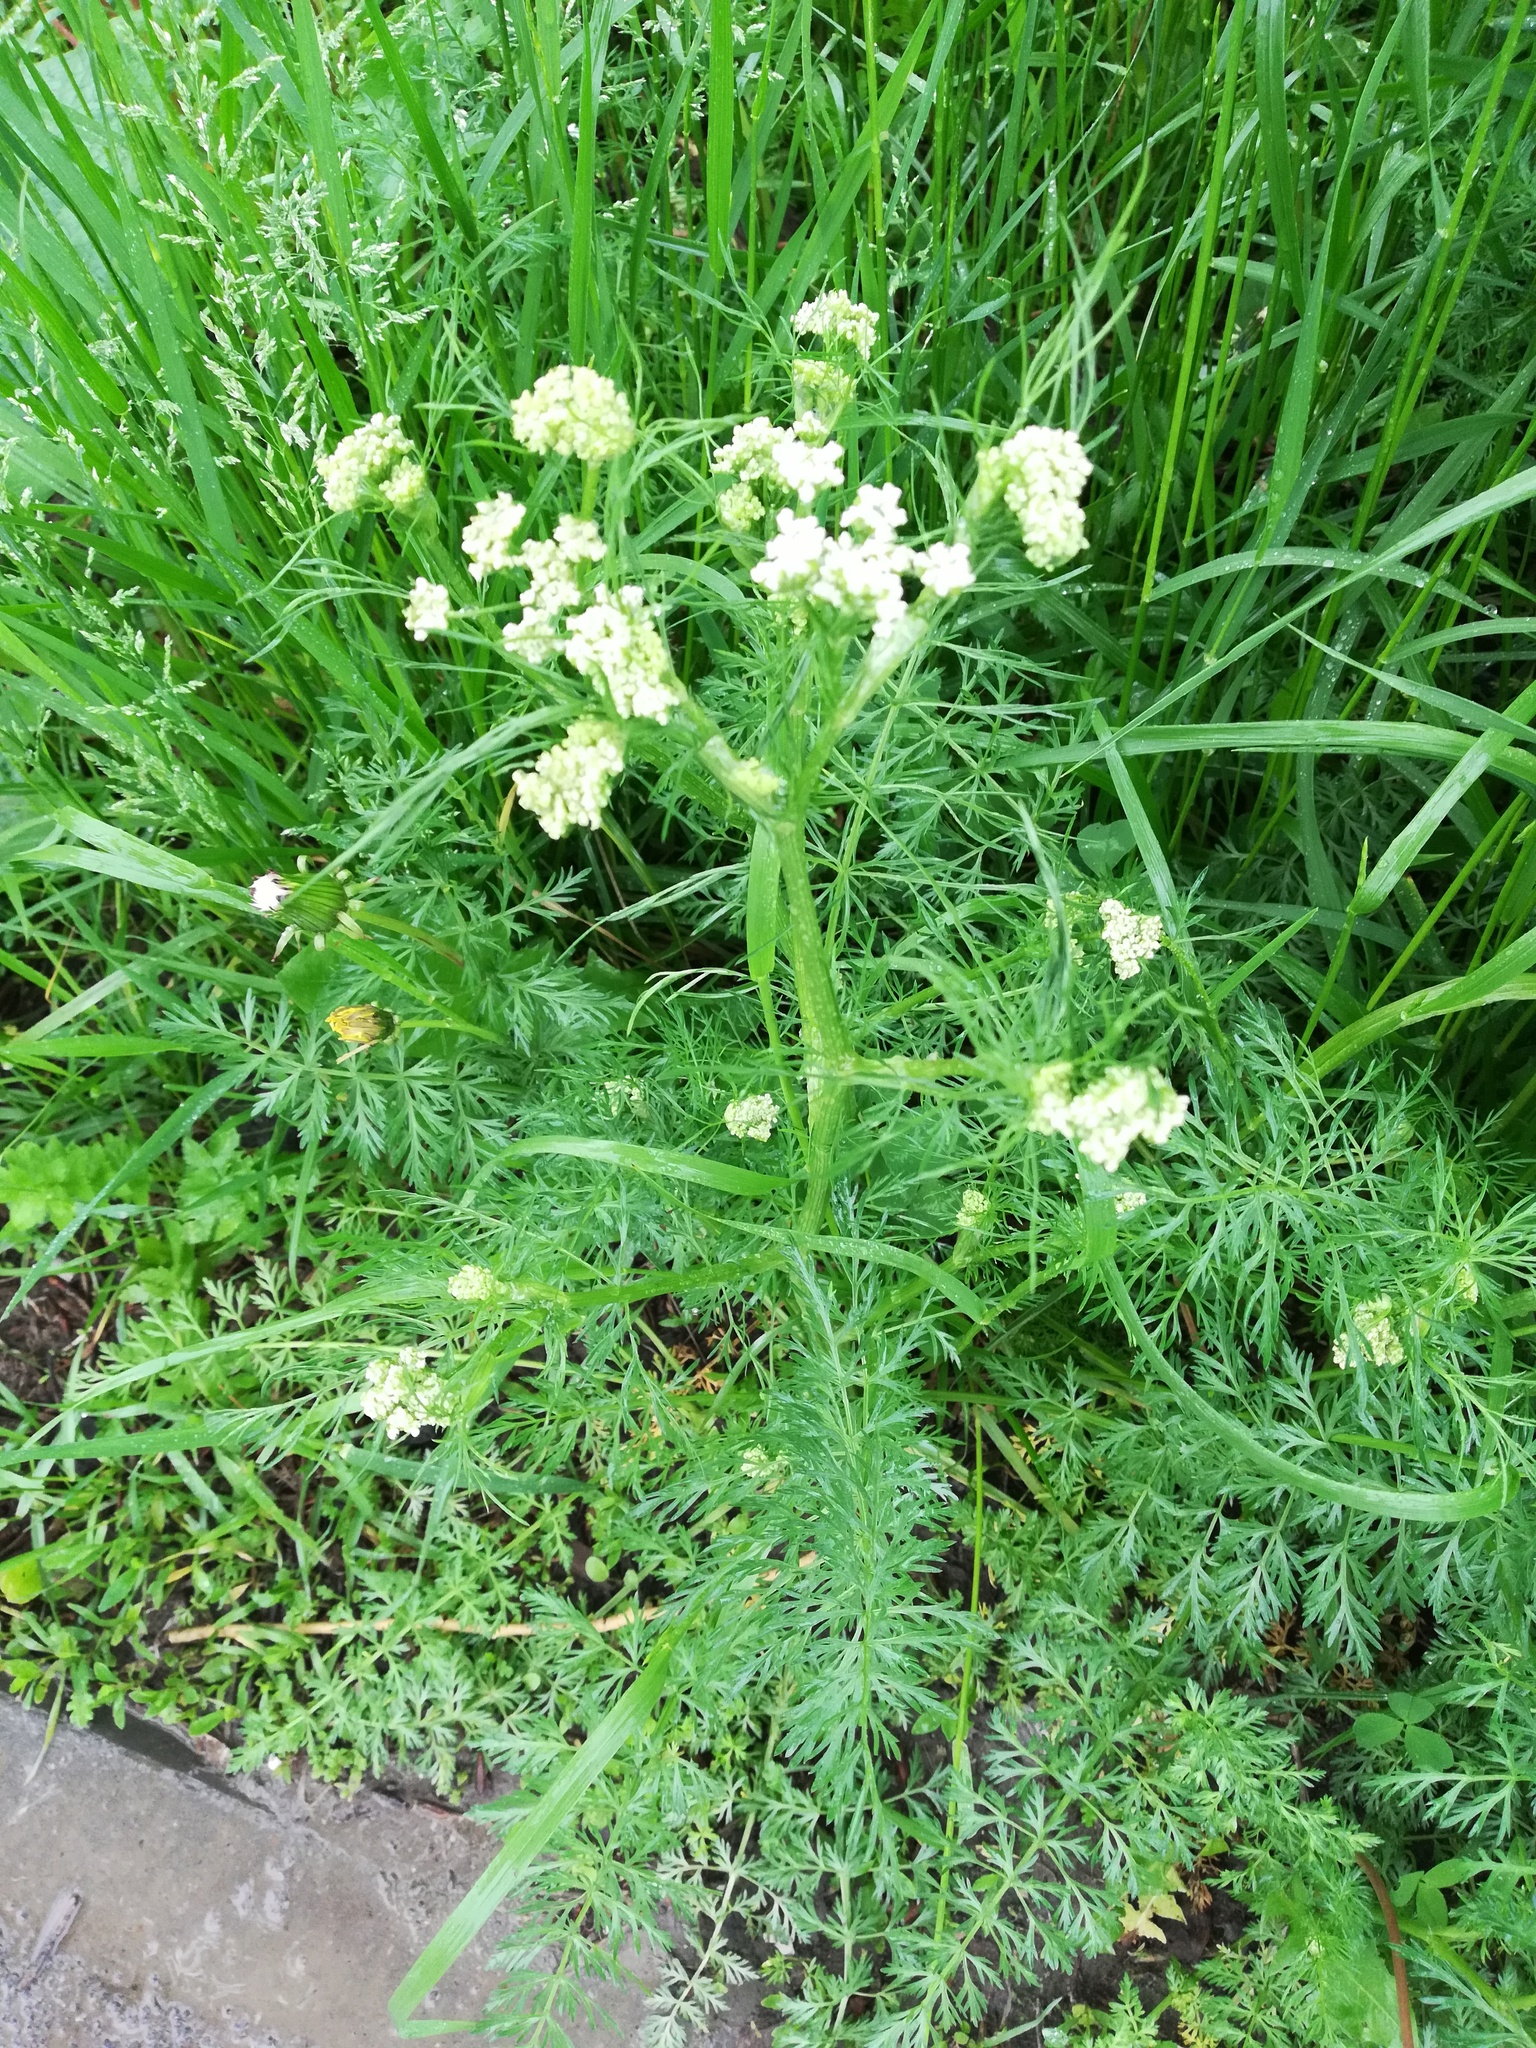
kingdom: Plantae
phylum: Tracheophyta
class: Magnoliopsida
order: Apiales
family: Apiaceae
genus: Carum
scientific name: Carum carvi
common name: Caraway
